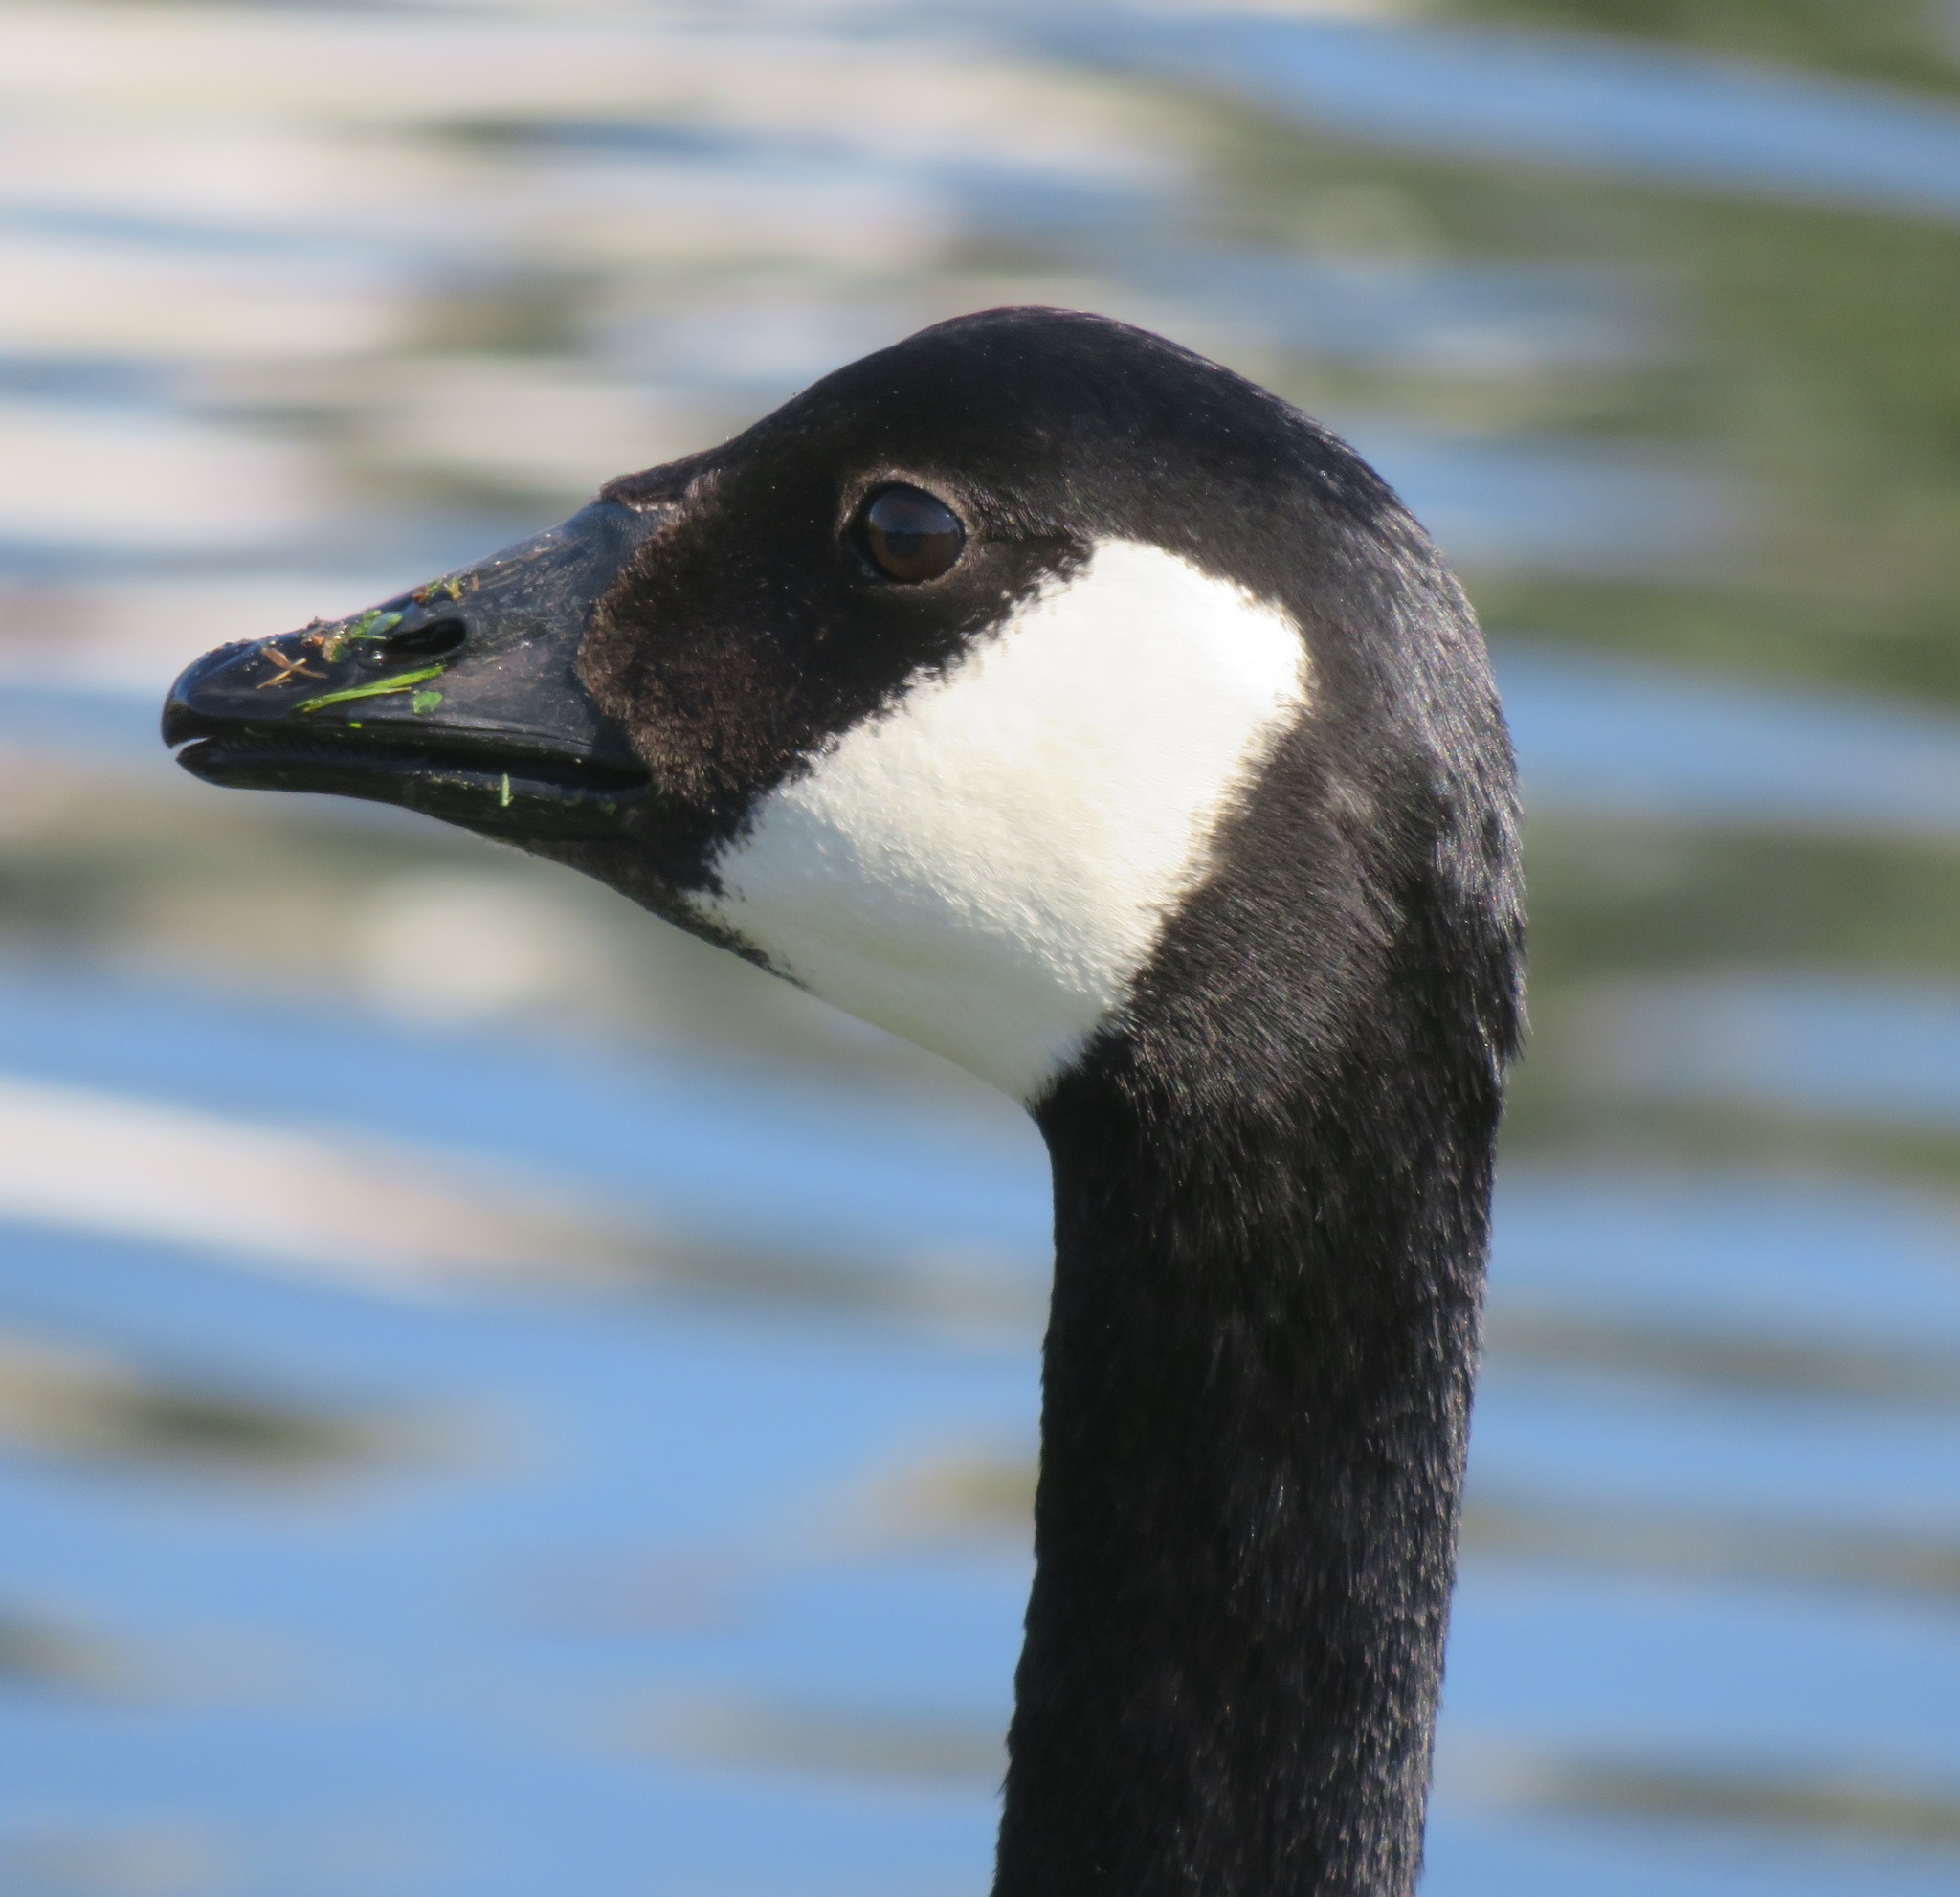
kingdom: Animalia
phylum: Chordata
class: Aves
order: Anseriformes
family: Anatidae
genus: Branta
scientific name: Branta canadensis
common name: Canada goose
